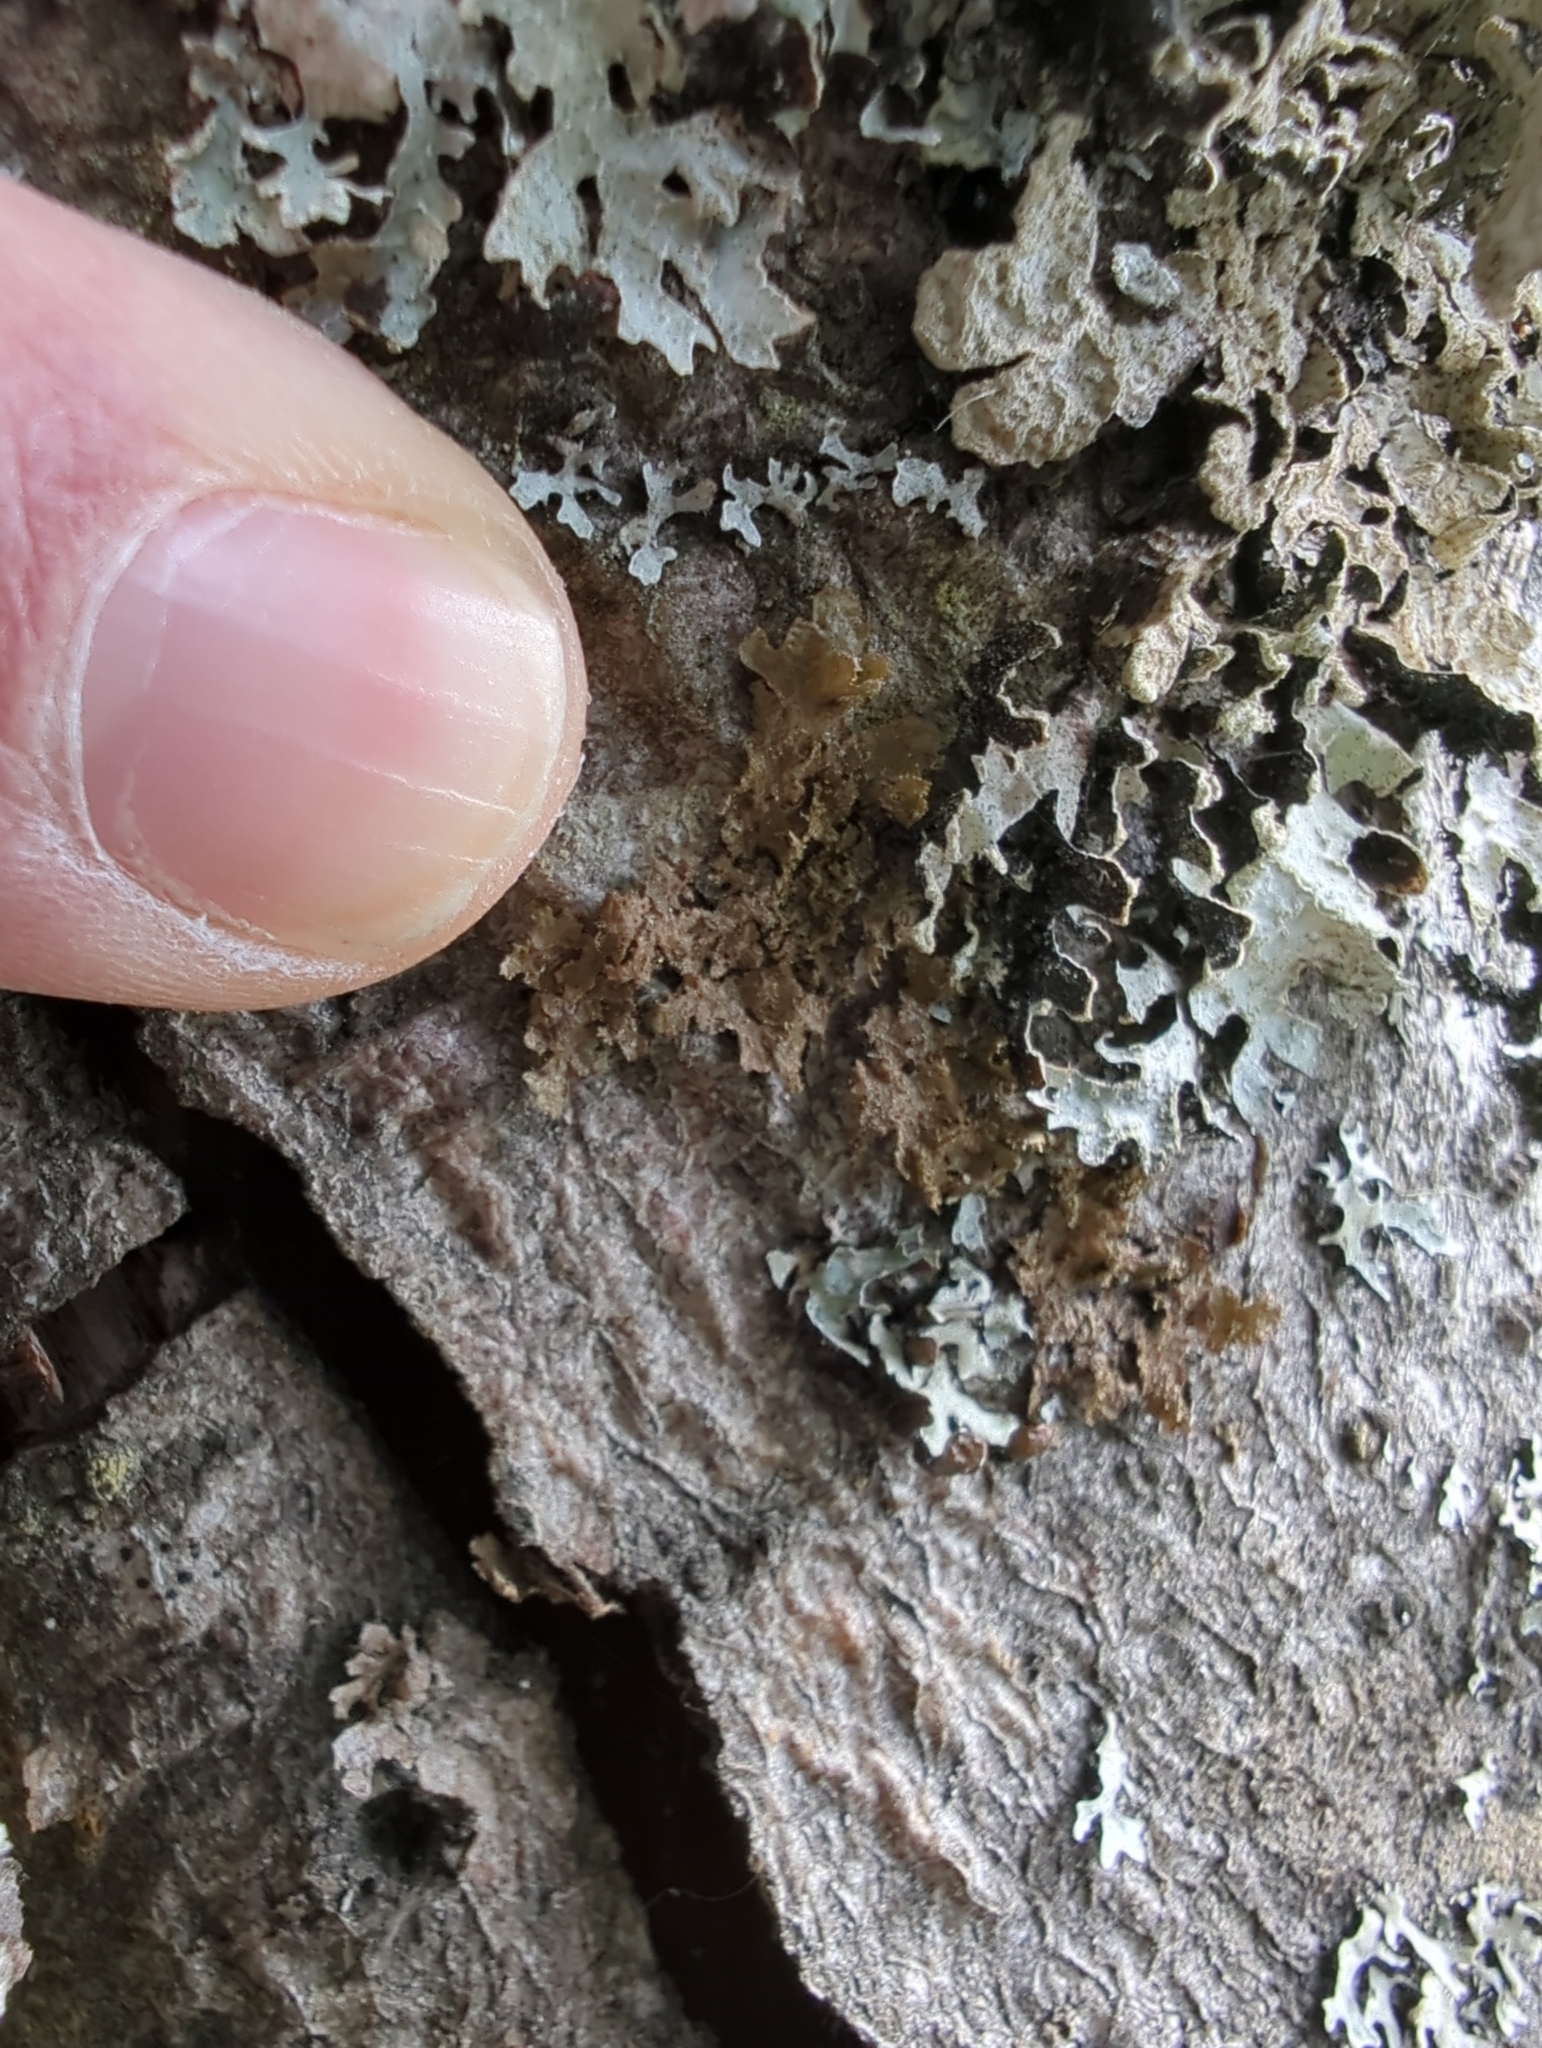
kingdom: Fungi
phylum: Ascomycota
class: Lecanoromycetes
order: Lecanorales
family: Parmeliaceae
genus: Melanohalea
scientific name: Melanohalea exasperatula
